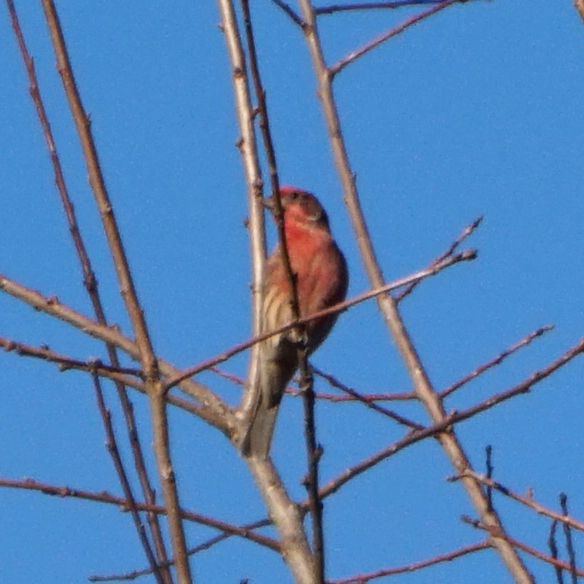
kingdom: Animalia
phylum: Chordata
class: Aves
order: Passeriformes
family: Fringillidae
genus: Haemorhous
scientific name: Haemorhous mexicanus
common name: House finch
